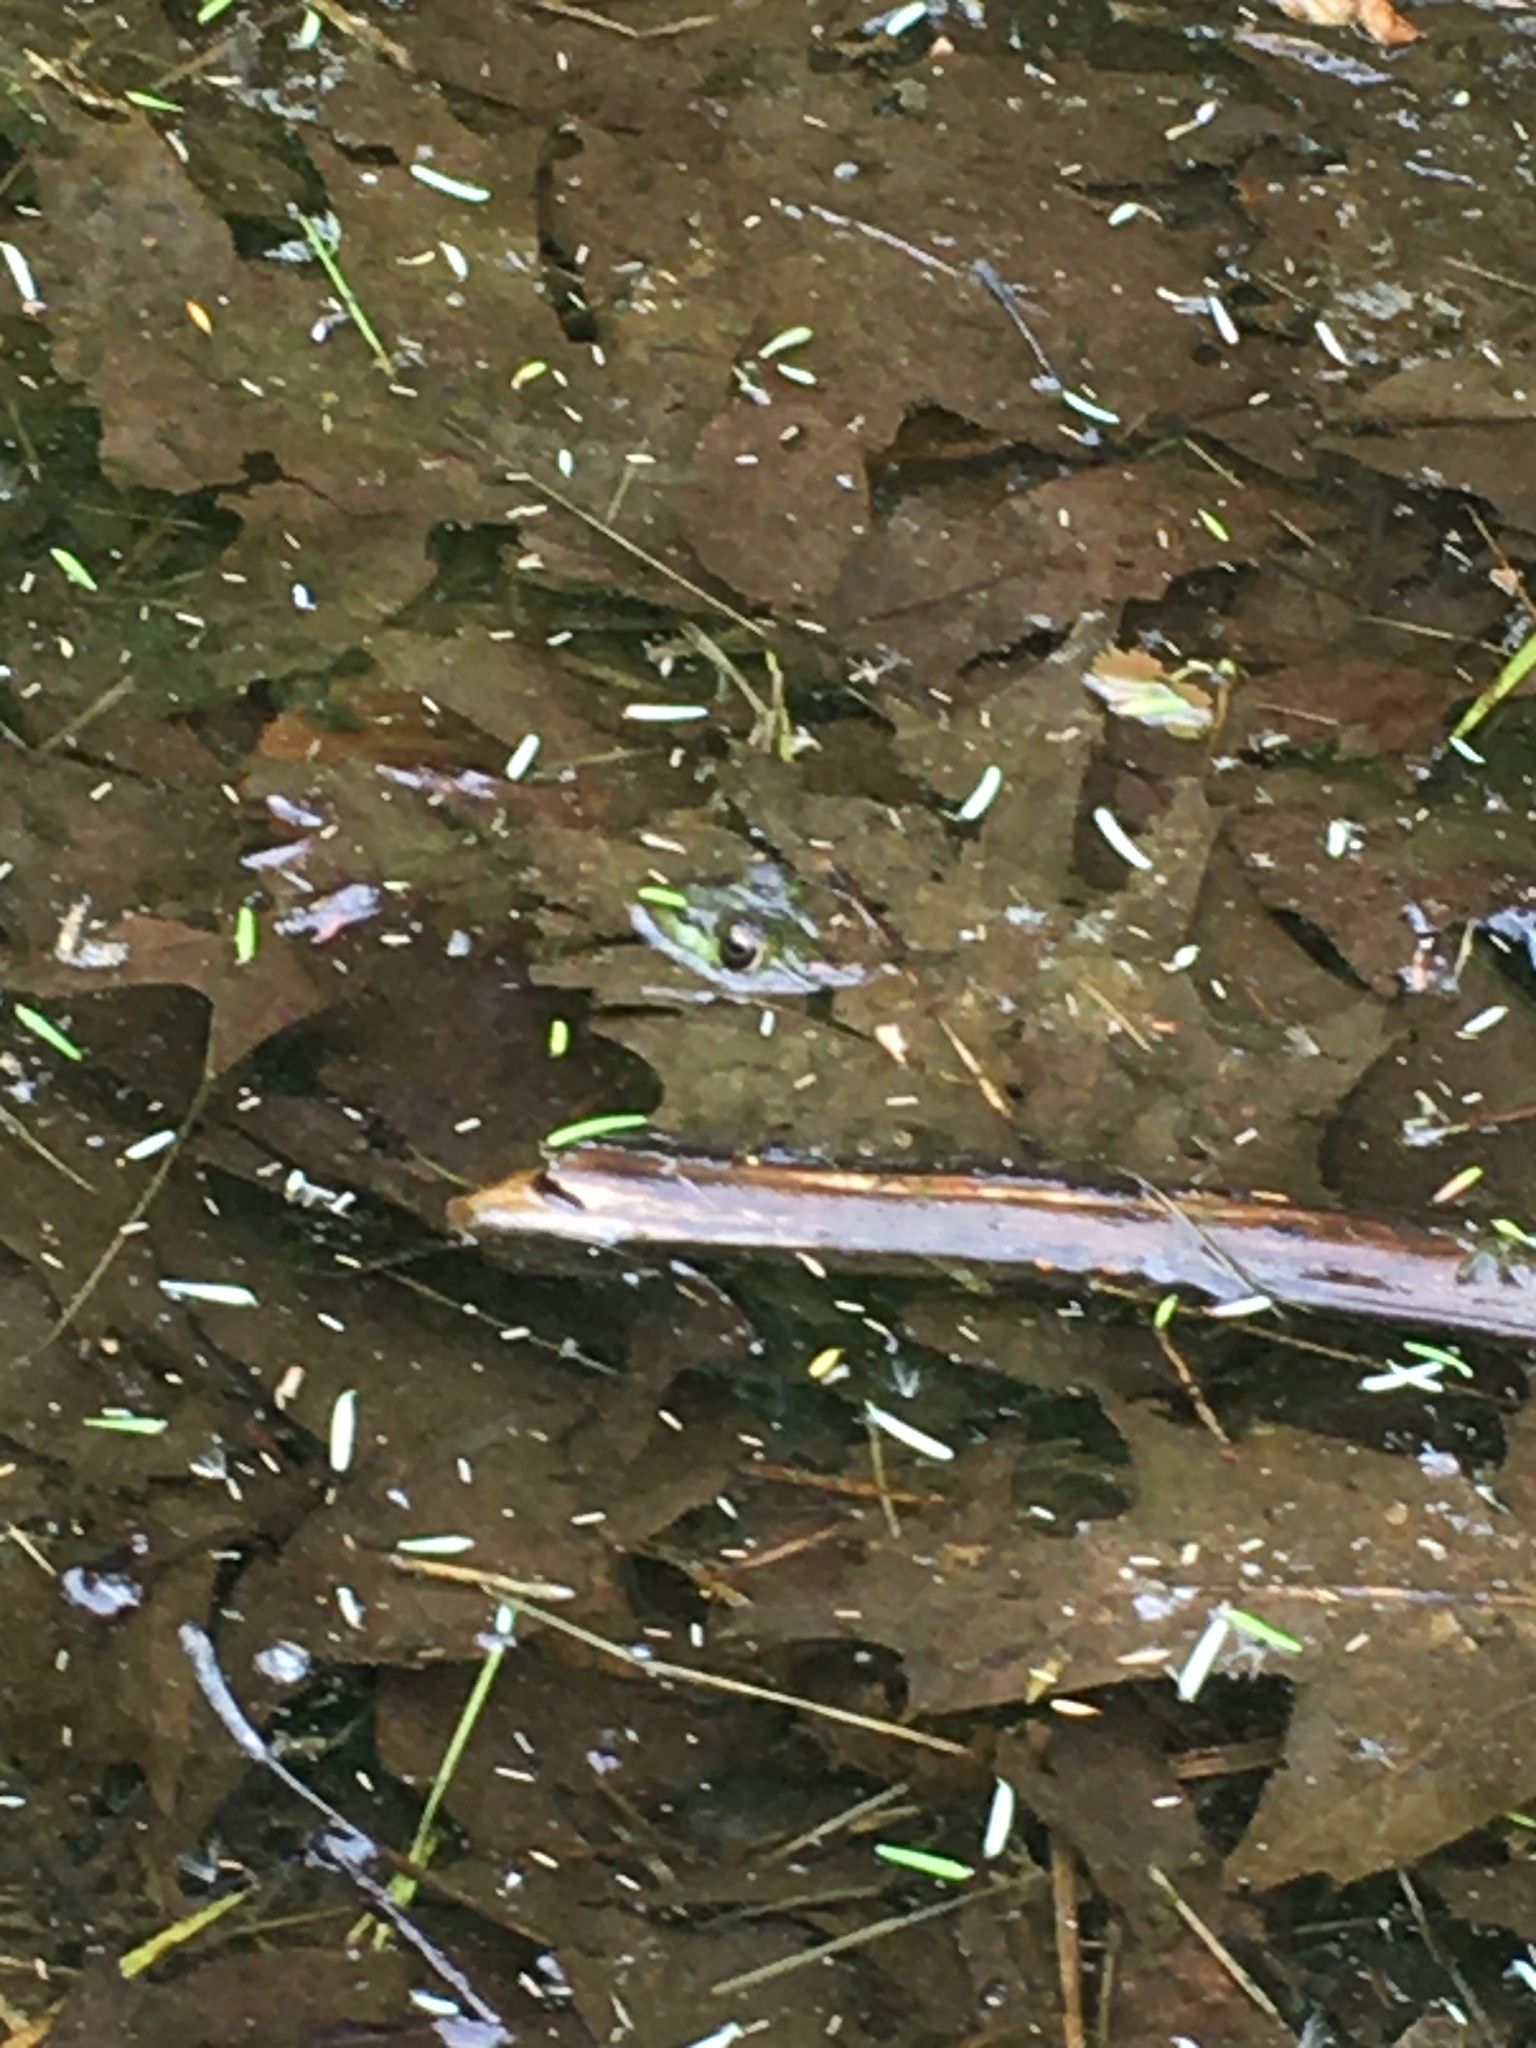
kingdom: Animalia
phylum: Chordata
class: Amphibia
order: Anura
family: Ranidae
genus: Lithobates
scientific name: Lithobates clamitans
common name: Green frog
